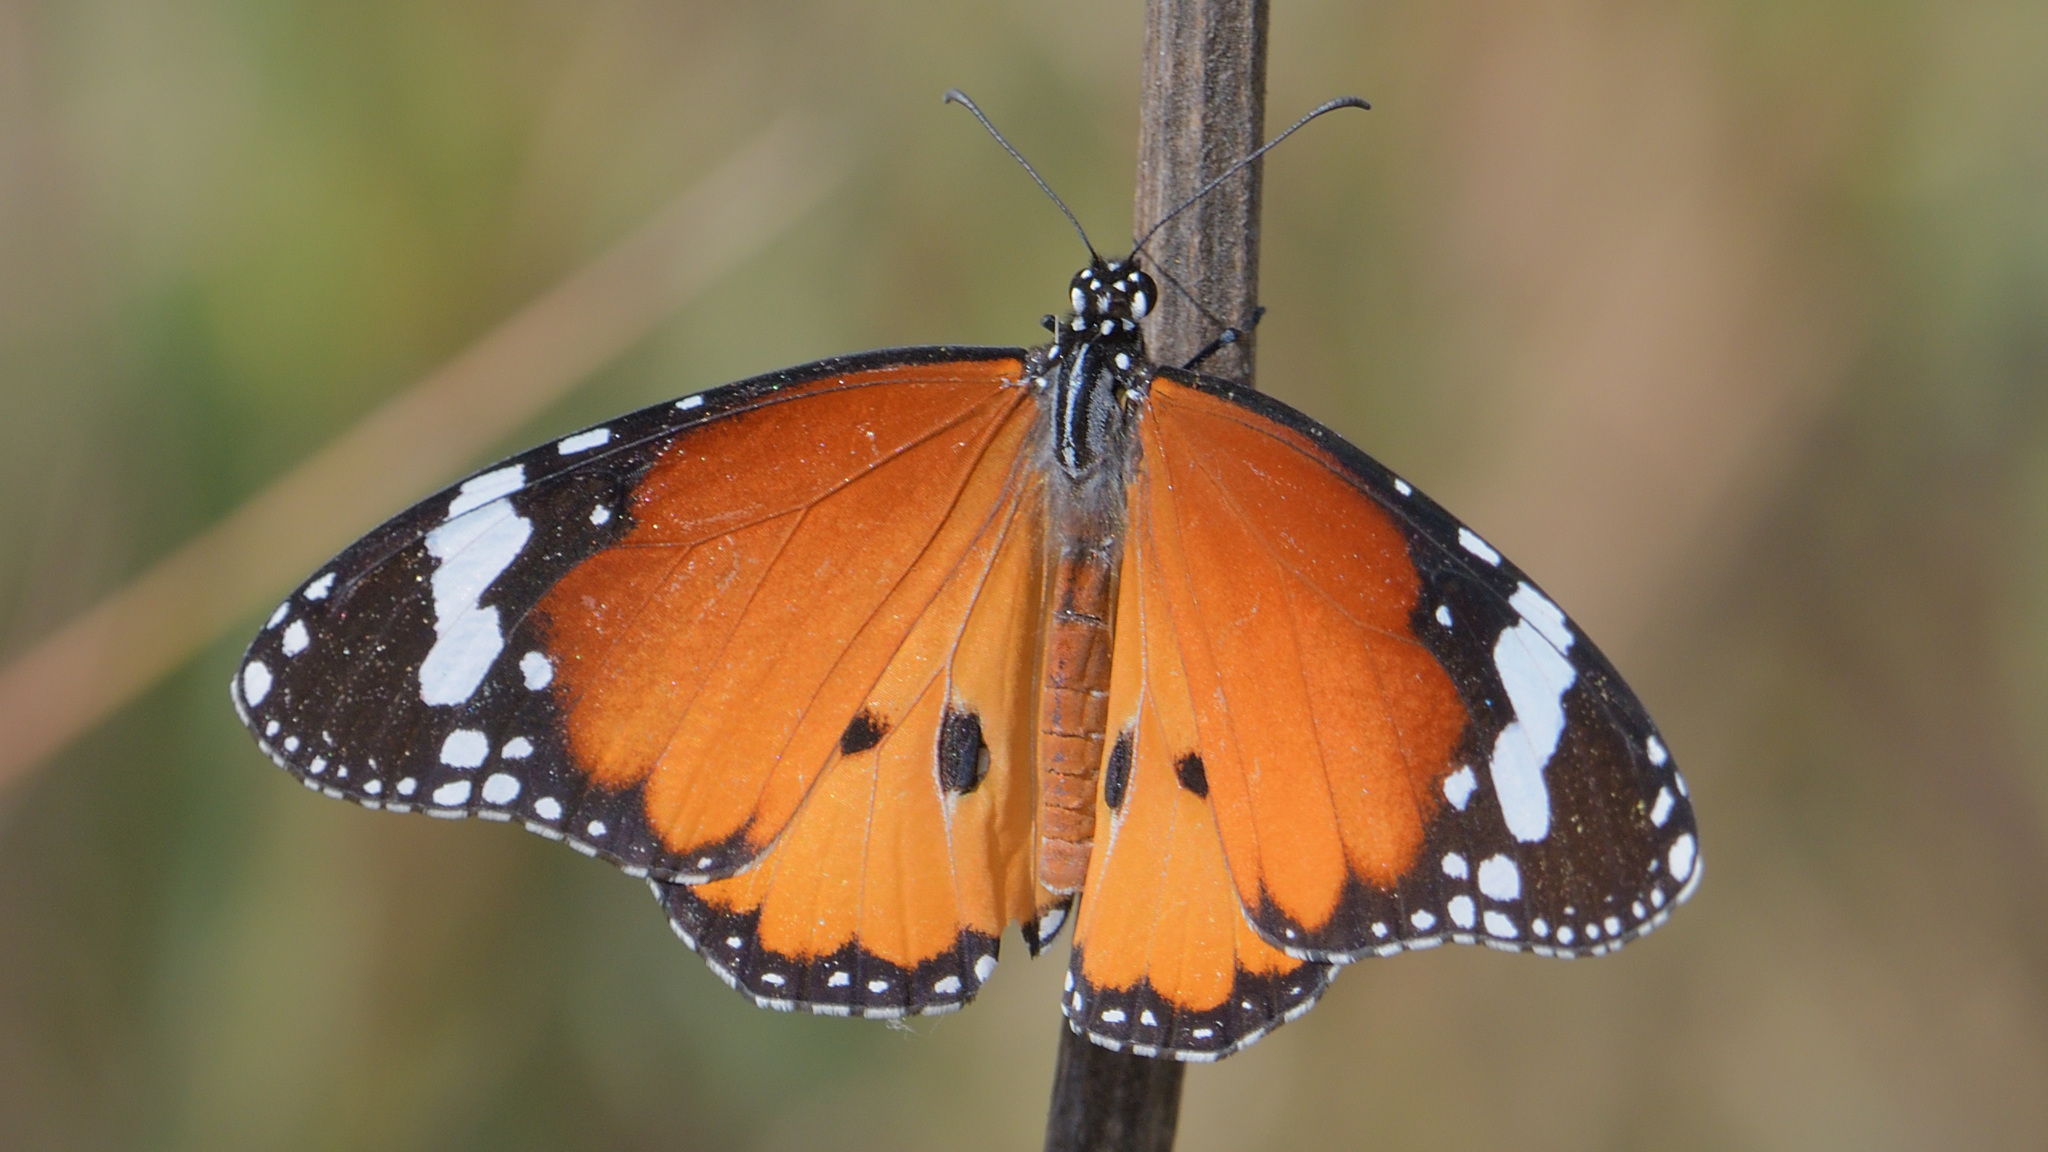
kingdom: Animalia
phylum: Arthropoda
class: Insecta
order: Lepidoptera
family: Nymphalidae
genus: Danaus
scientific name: Danaus chrysippus
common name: Plain tiger
